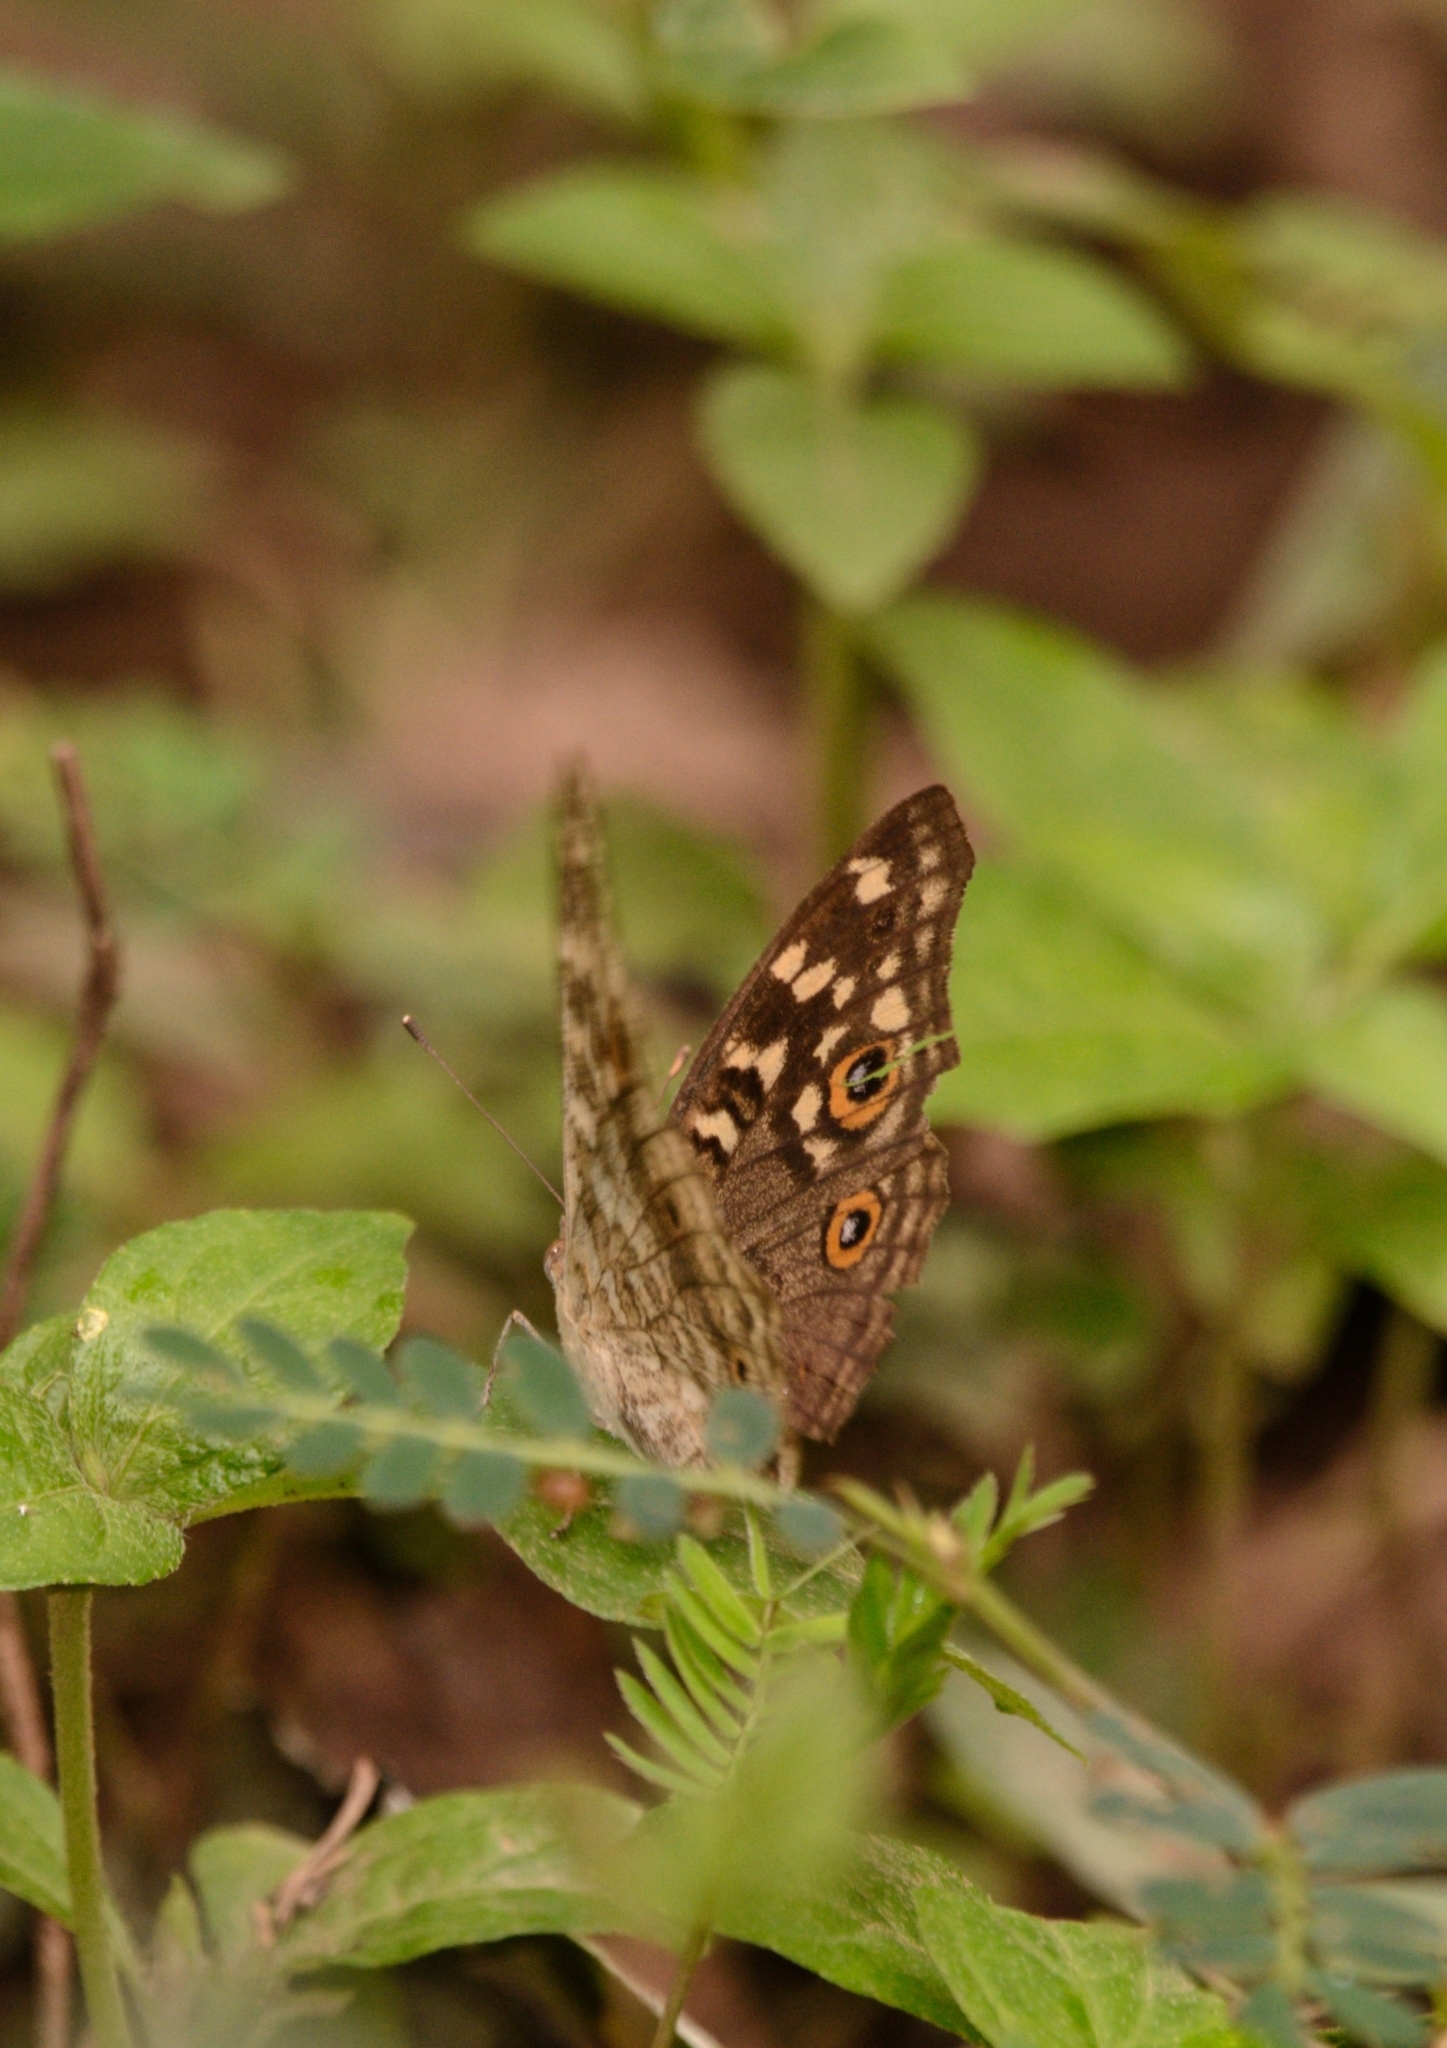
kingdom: Animalia
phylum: Arthropoda
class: Insecta
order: Lepidoptera
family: Nymphalidae
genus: Junonia
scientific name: Junonia lemonias
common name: Lemon pansy
